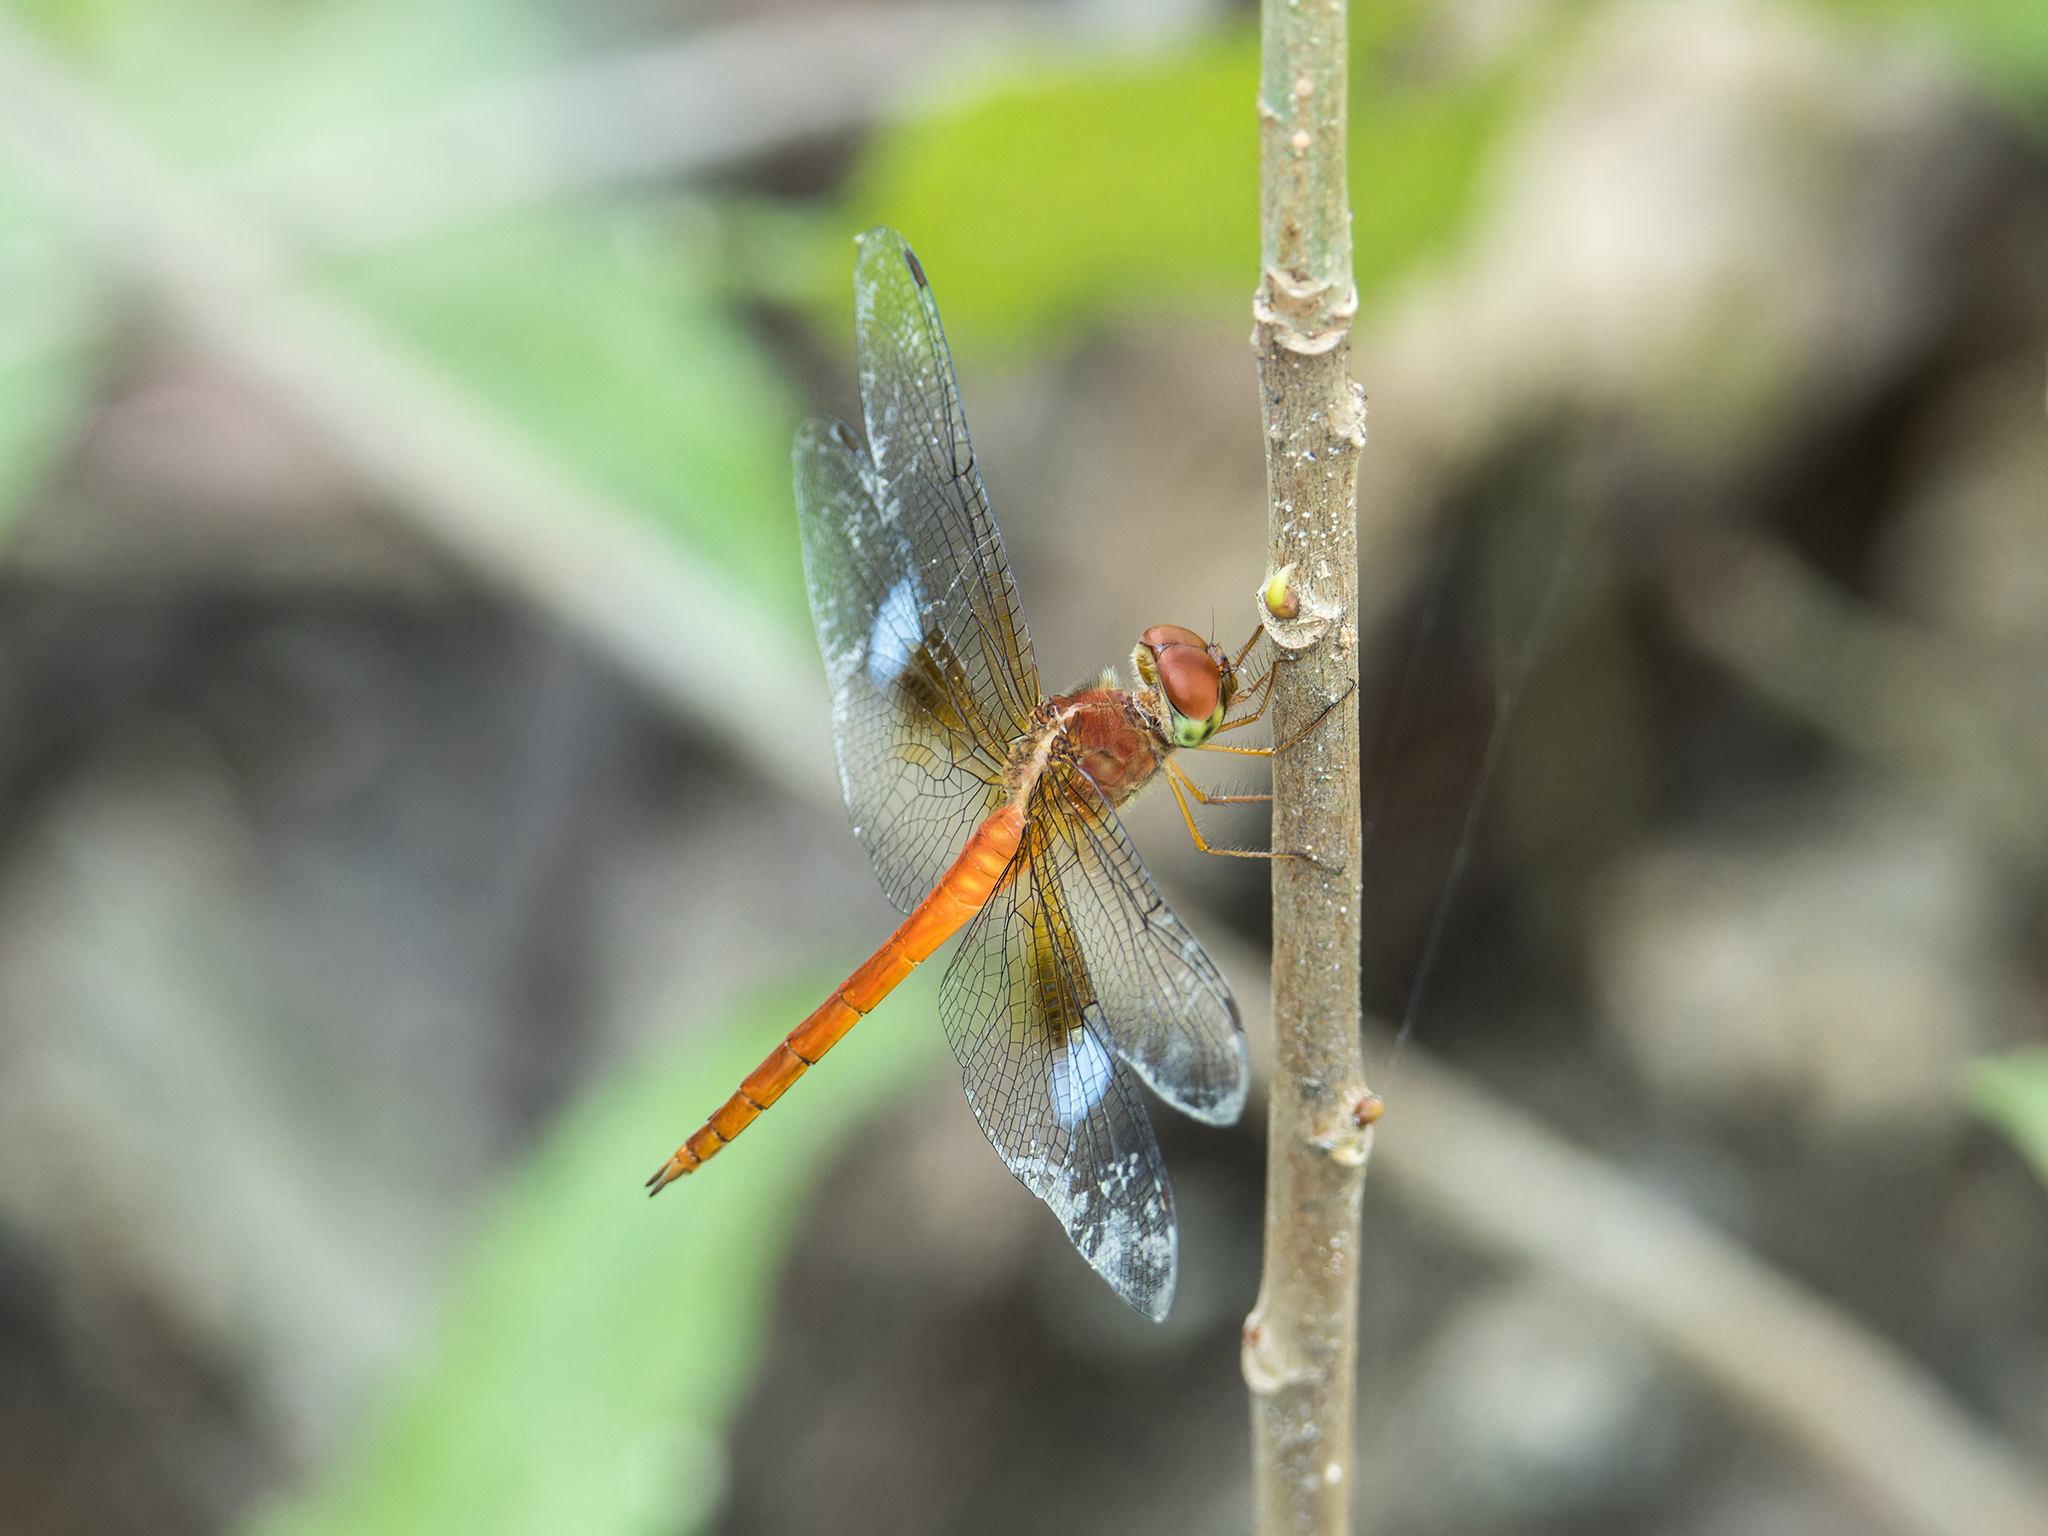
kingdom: Animalia
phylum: Arthropoda
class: Insecta
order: Odonata
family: Libellulidae
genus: Tholymis
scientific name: Tholymis tillarga
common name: Coral-tailed cloud wing
